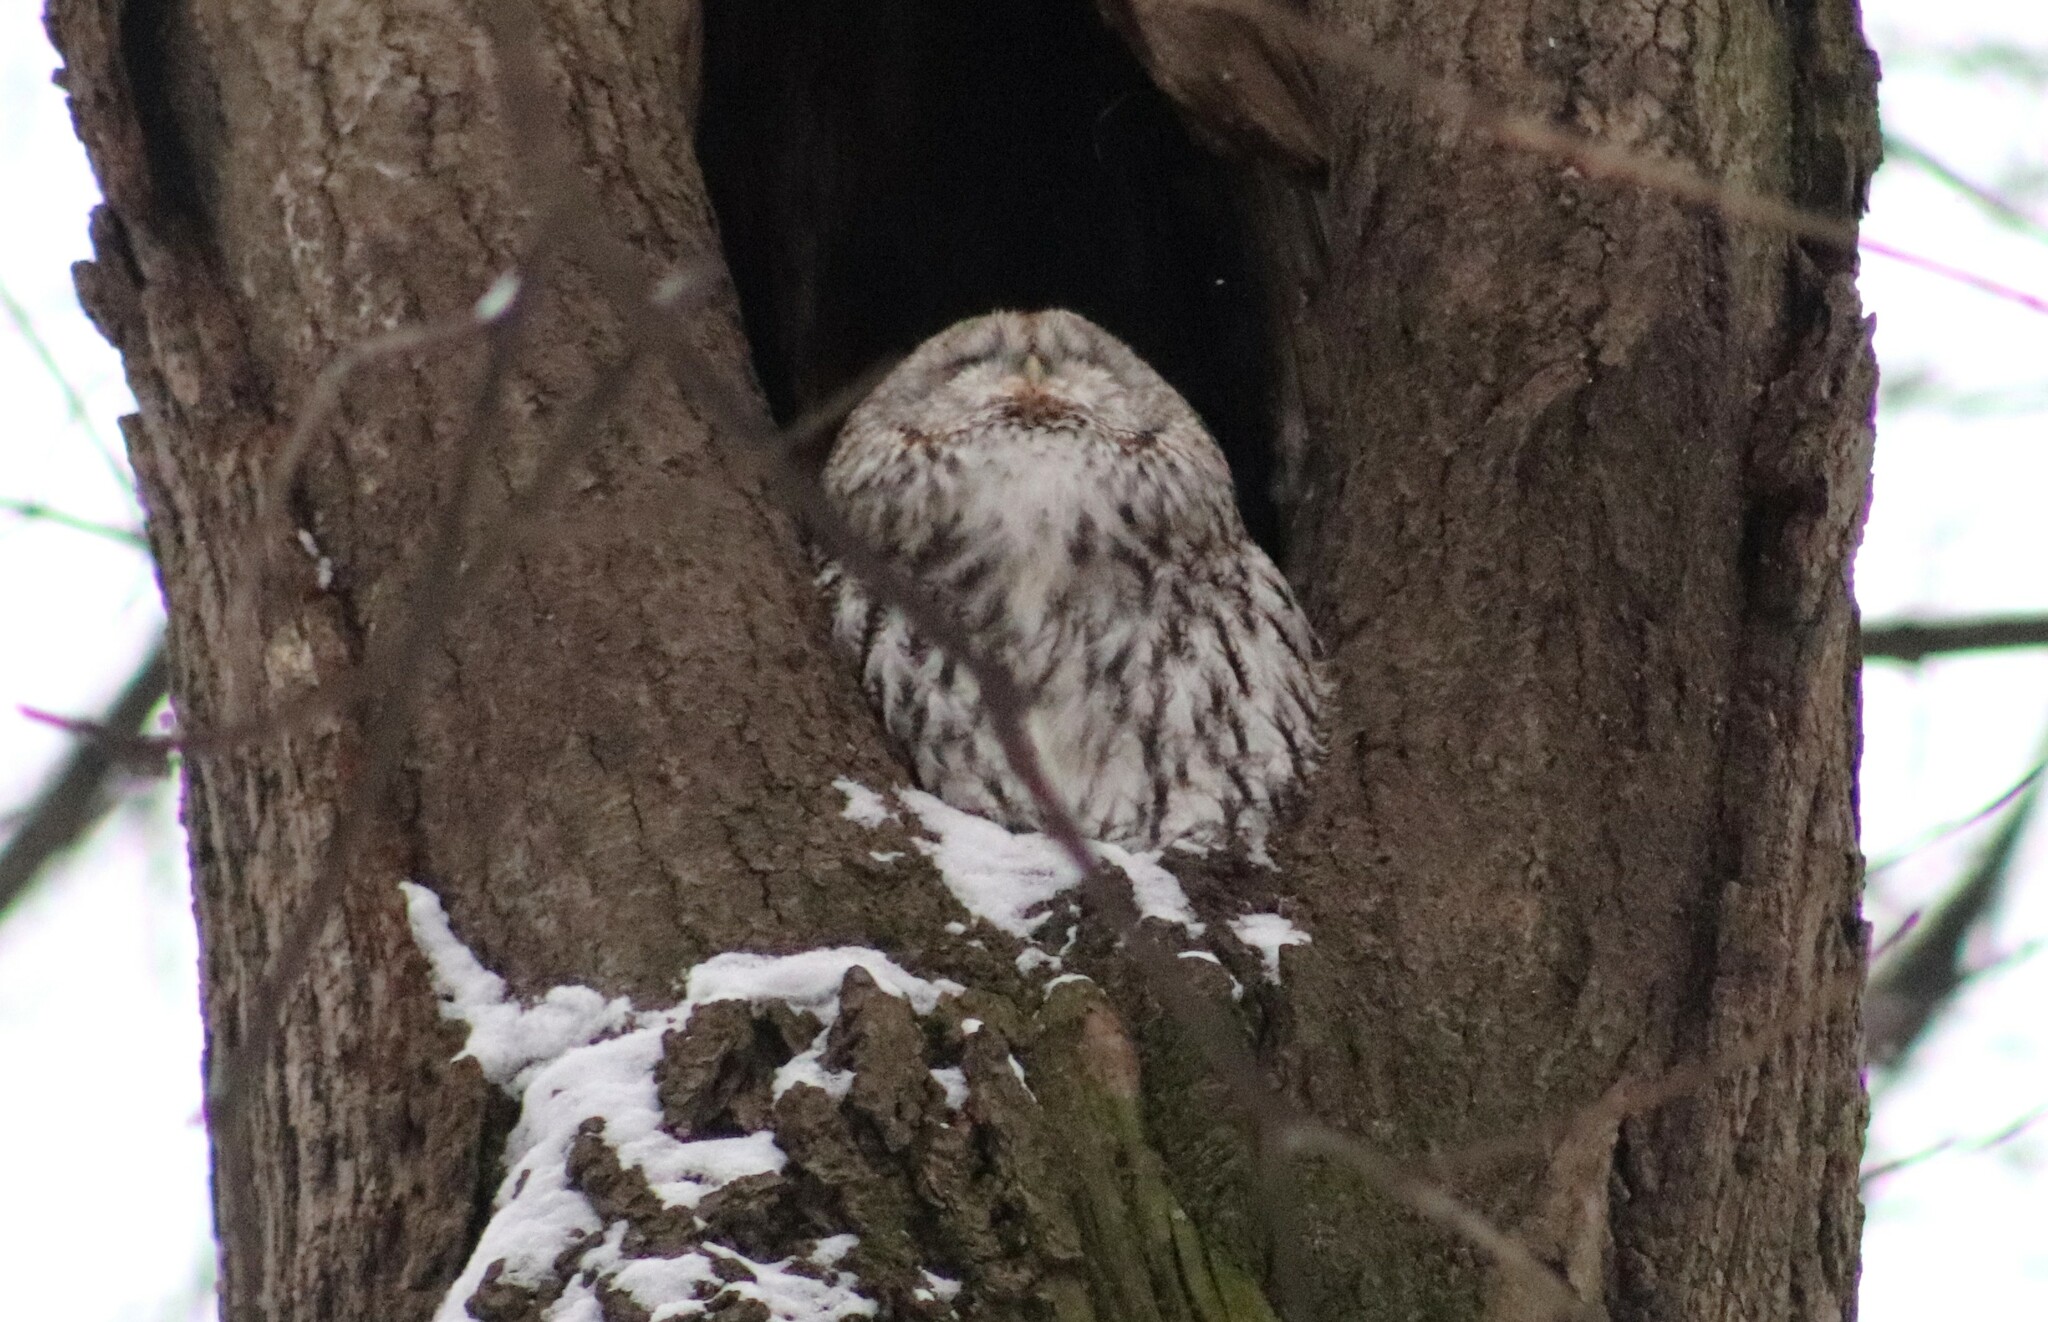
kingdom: Animalia
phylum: Chordata
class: Aves
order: Strigiformes
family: Strigidae
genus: Strix
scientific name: Strix aluco
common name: Tawny owl
